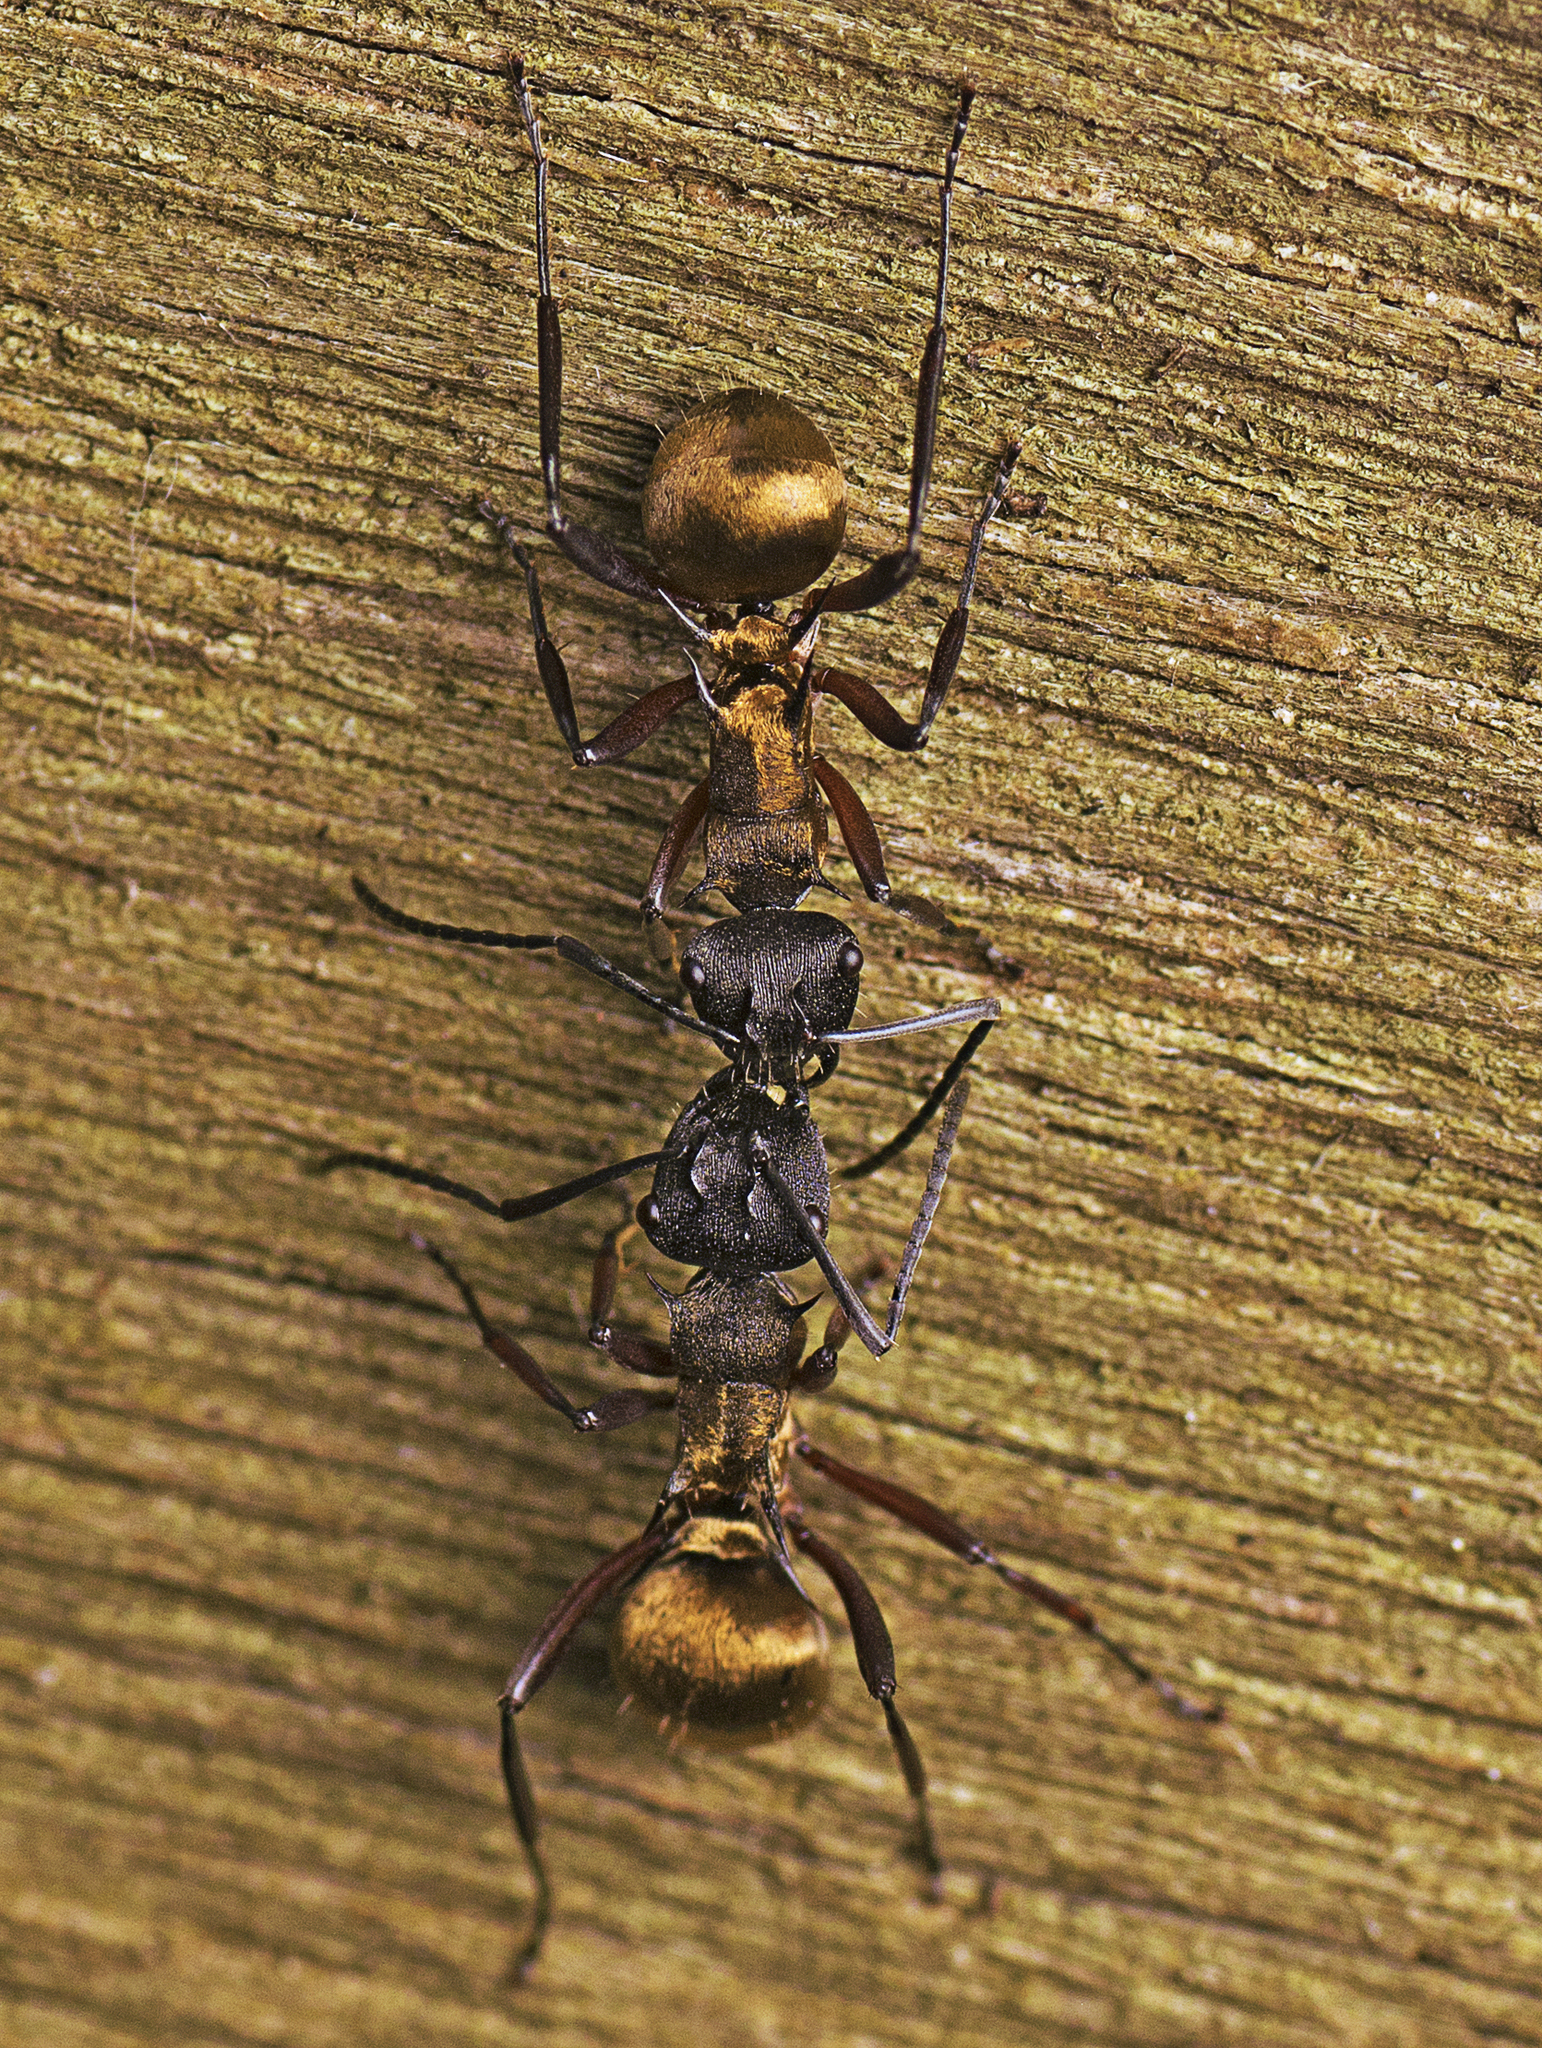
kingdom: Animalia
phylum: Arthropoda
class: Insecta
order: Hymenoptera
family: Formicidae
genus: Polyrhachis
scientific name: Polyrhachis rufifemur
